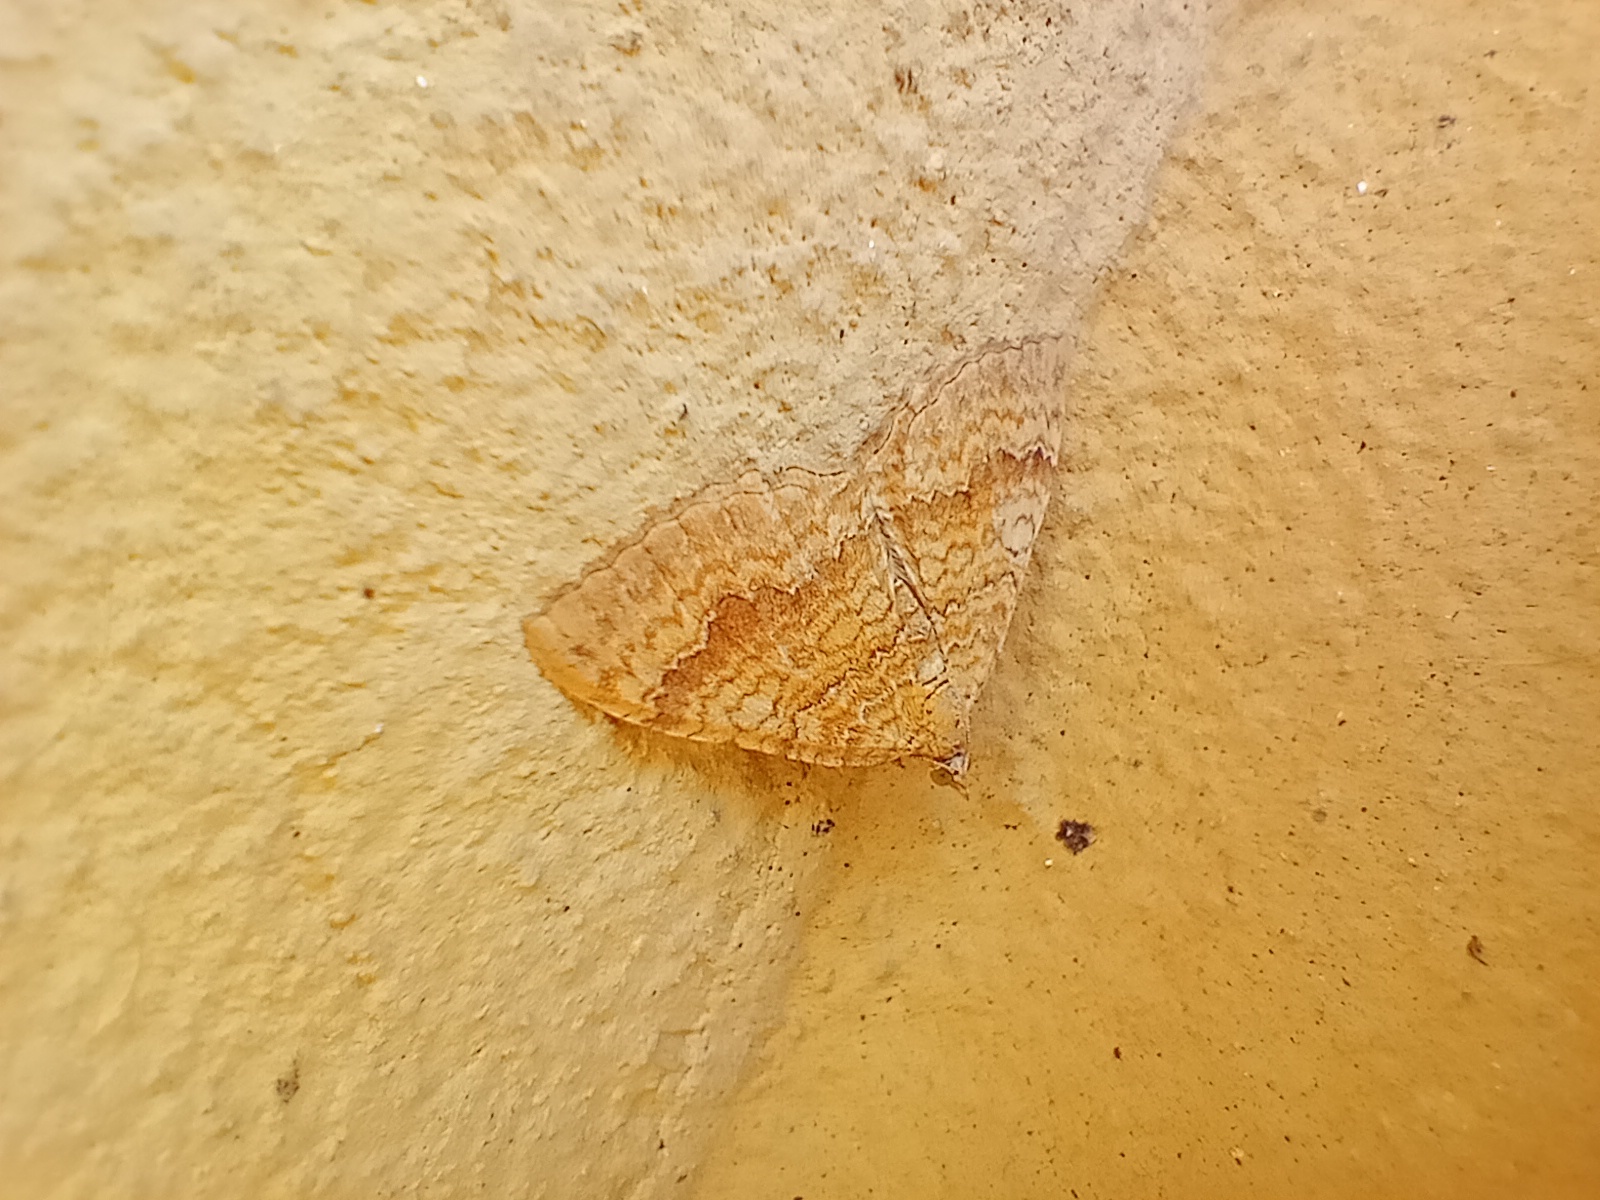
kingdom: Animalia
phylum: Arthropoda
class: Insecta
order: Lepidoptera
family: Geometridae
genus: Camptogramma
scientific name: Camptogramma bilineata
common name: Yellow shell
